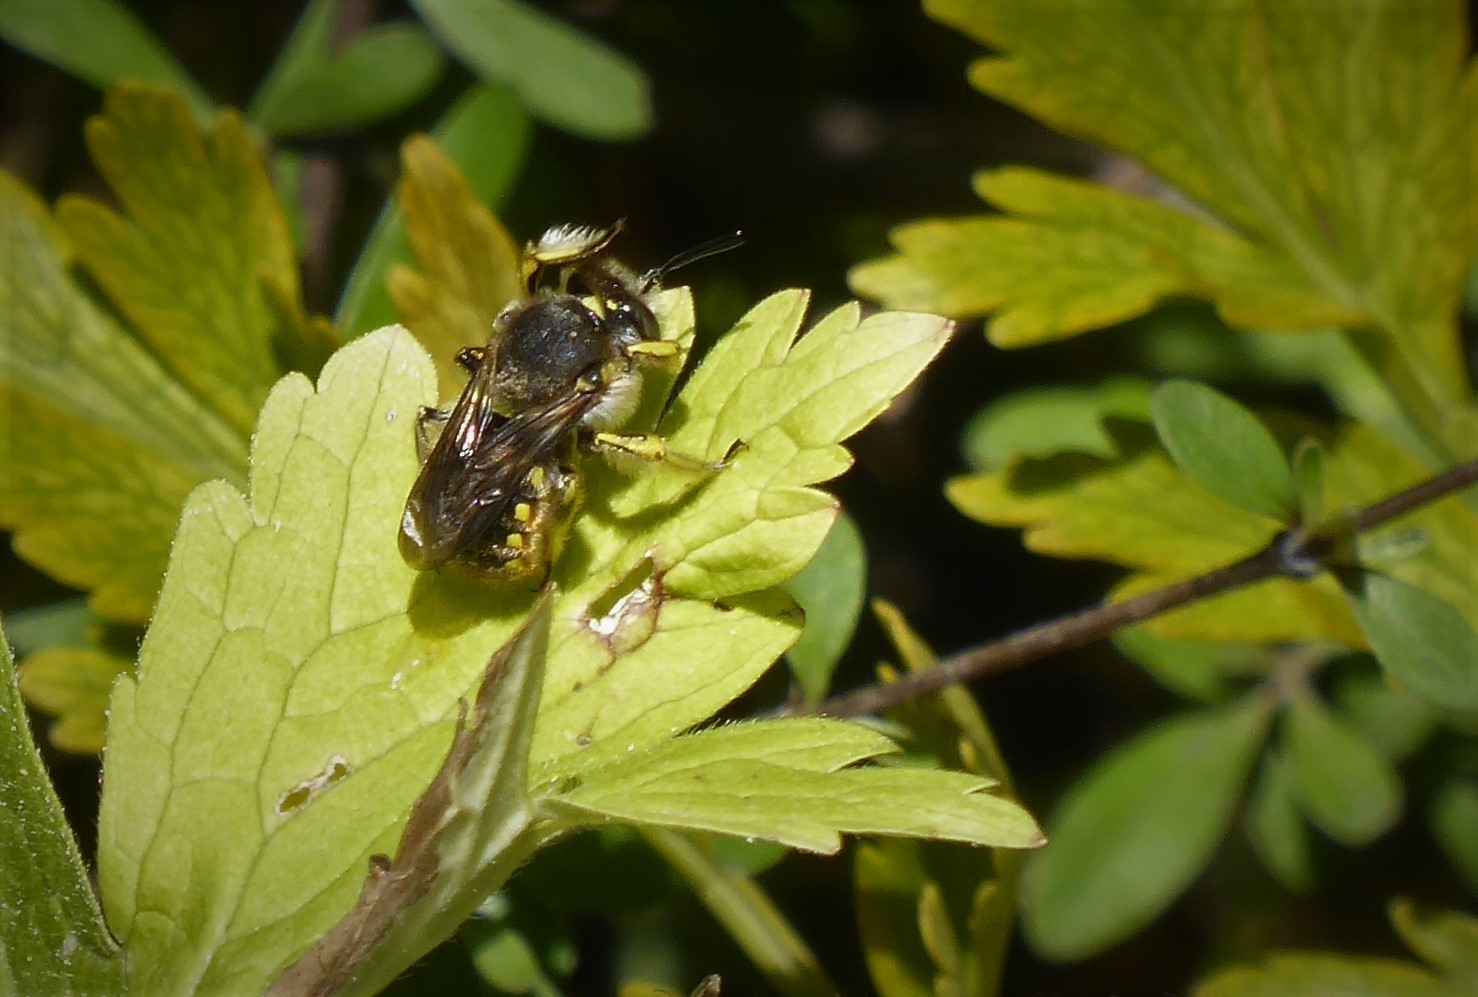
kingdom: Animalia
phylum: Arthropoda
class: Insecta
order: Hymenoptera
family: Megachilidae
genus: Anthidium
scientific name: Anthidium manicatum
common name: Wool carder bee
